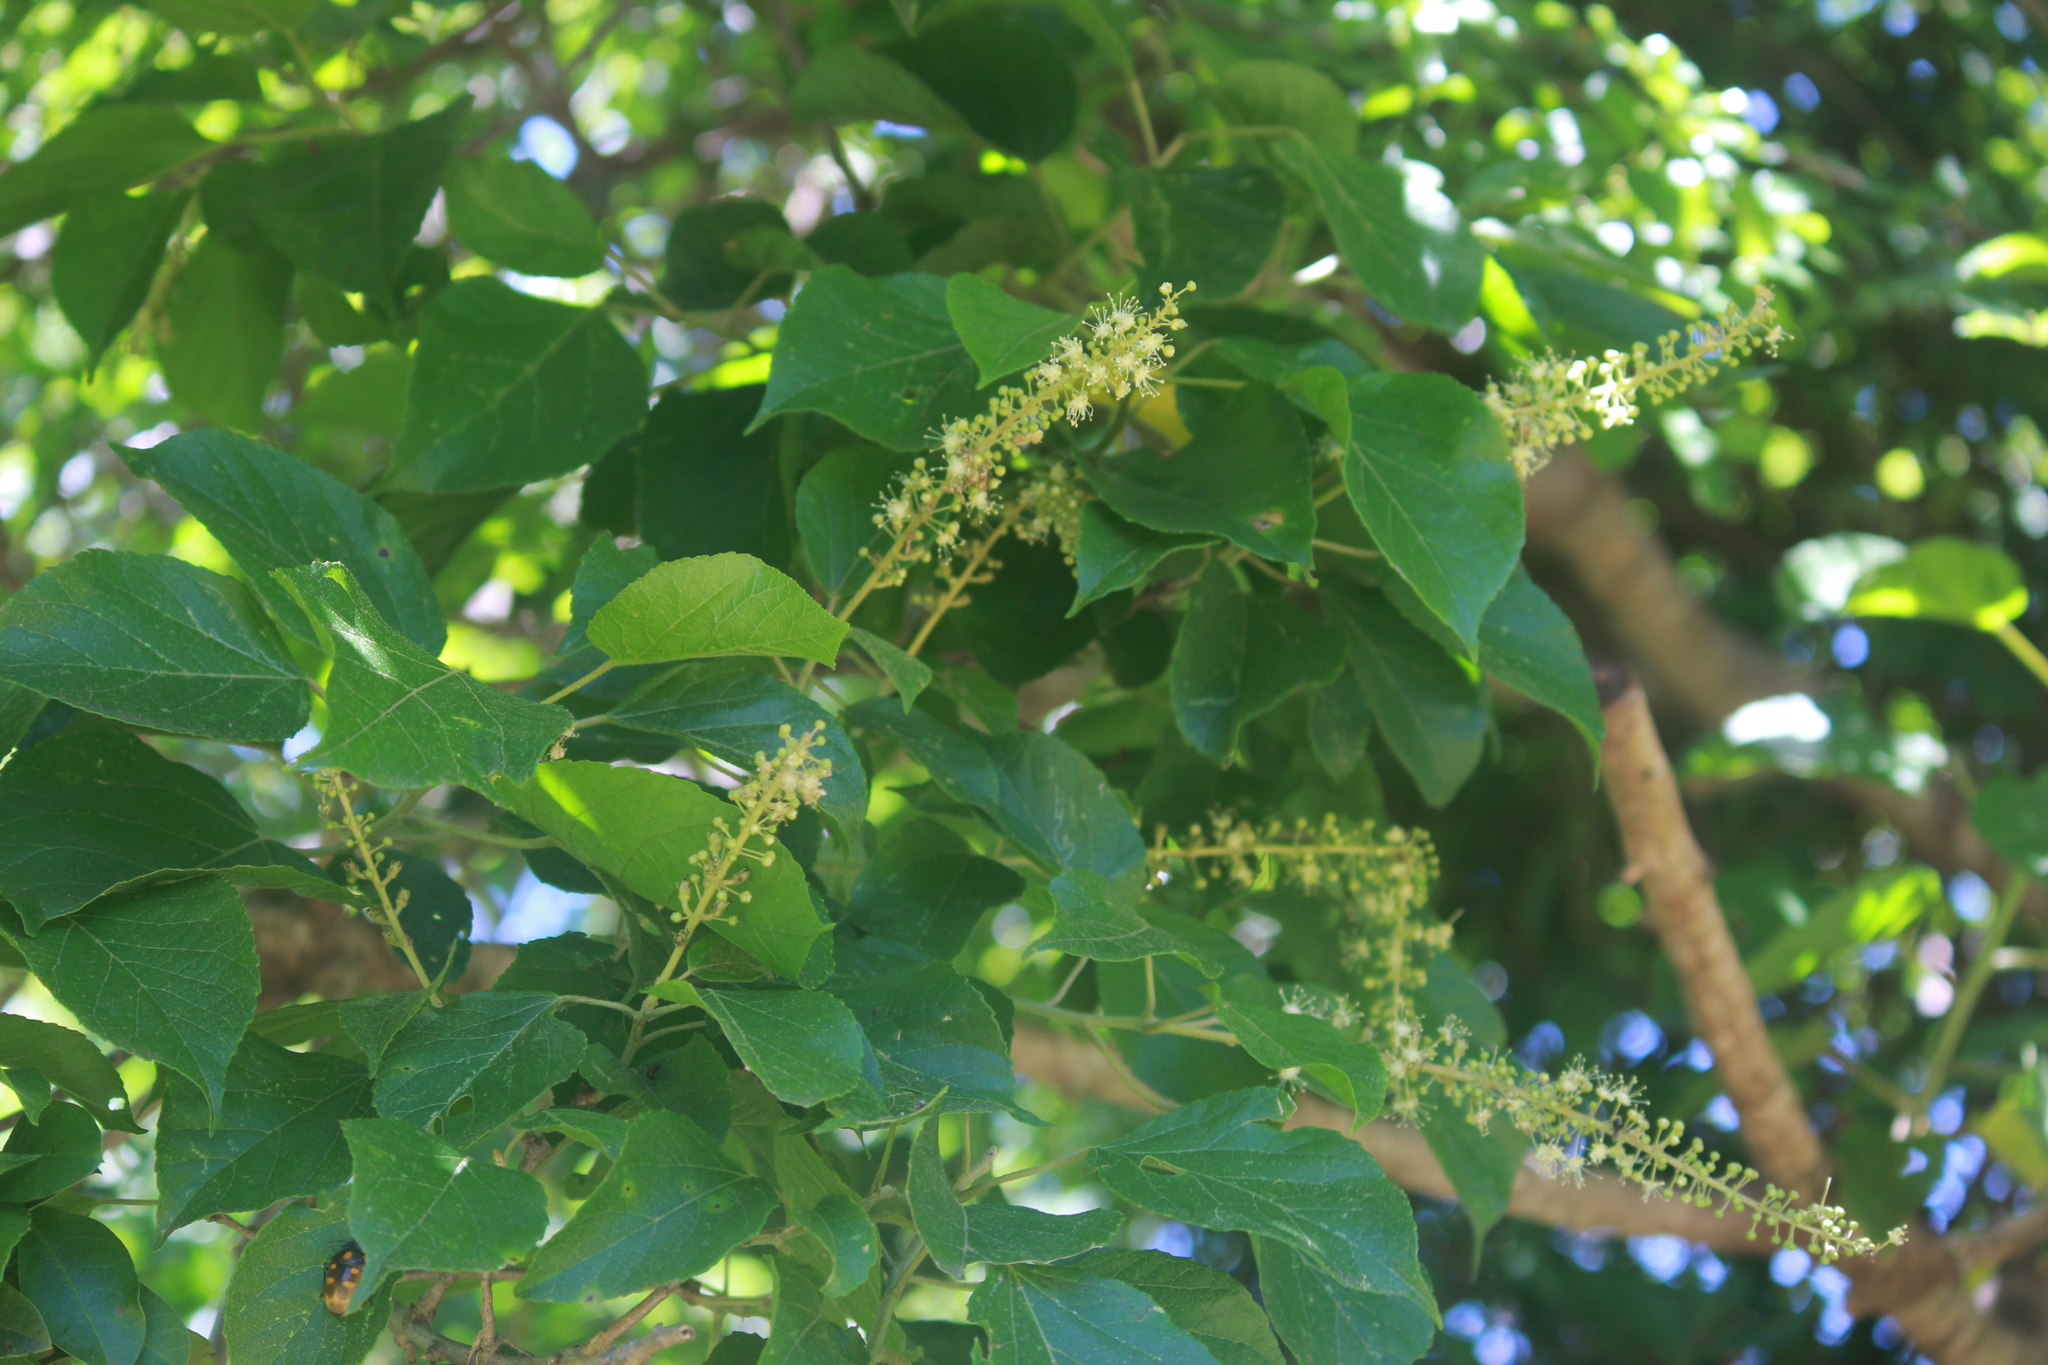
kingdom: Plantae
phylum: Tracheophyta
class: Magnoliopsida
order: Malpighiales
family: Euphorbiaceae
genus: Croton
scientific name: Croton sylvaticus
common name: Forest croton
